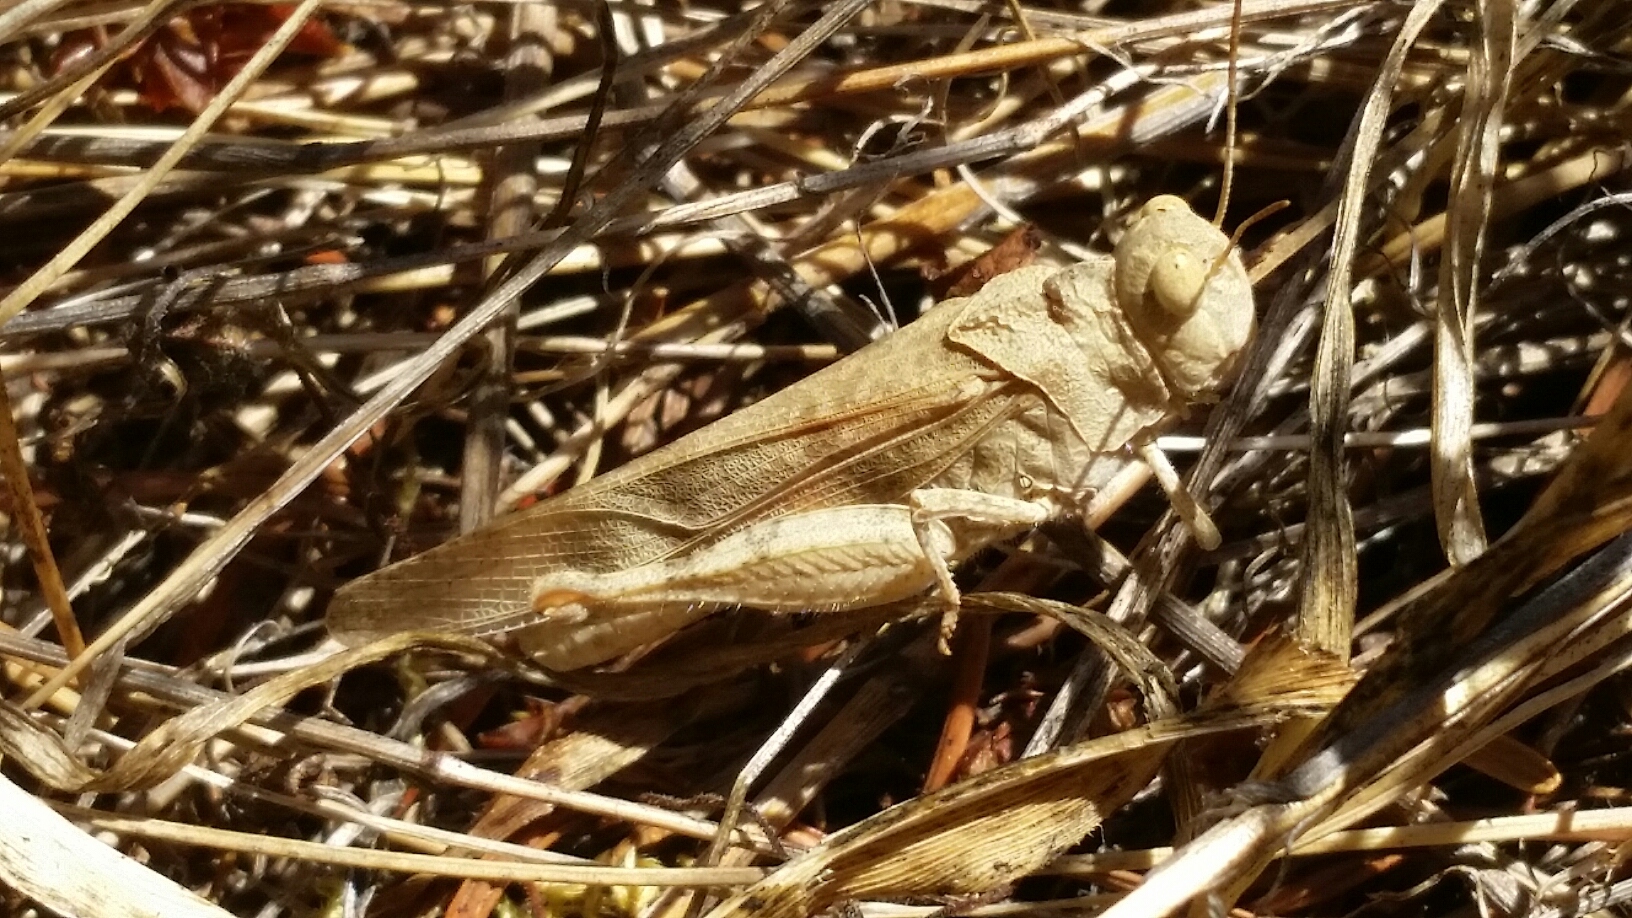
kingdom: Animalia
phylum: Arthropoda
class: Insecta
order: Orthoptera
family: Acrididae
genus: Dissosteira
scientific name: Dissosteira pictipennis
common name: California rose-winged grasshopper
